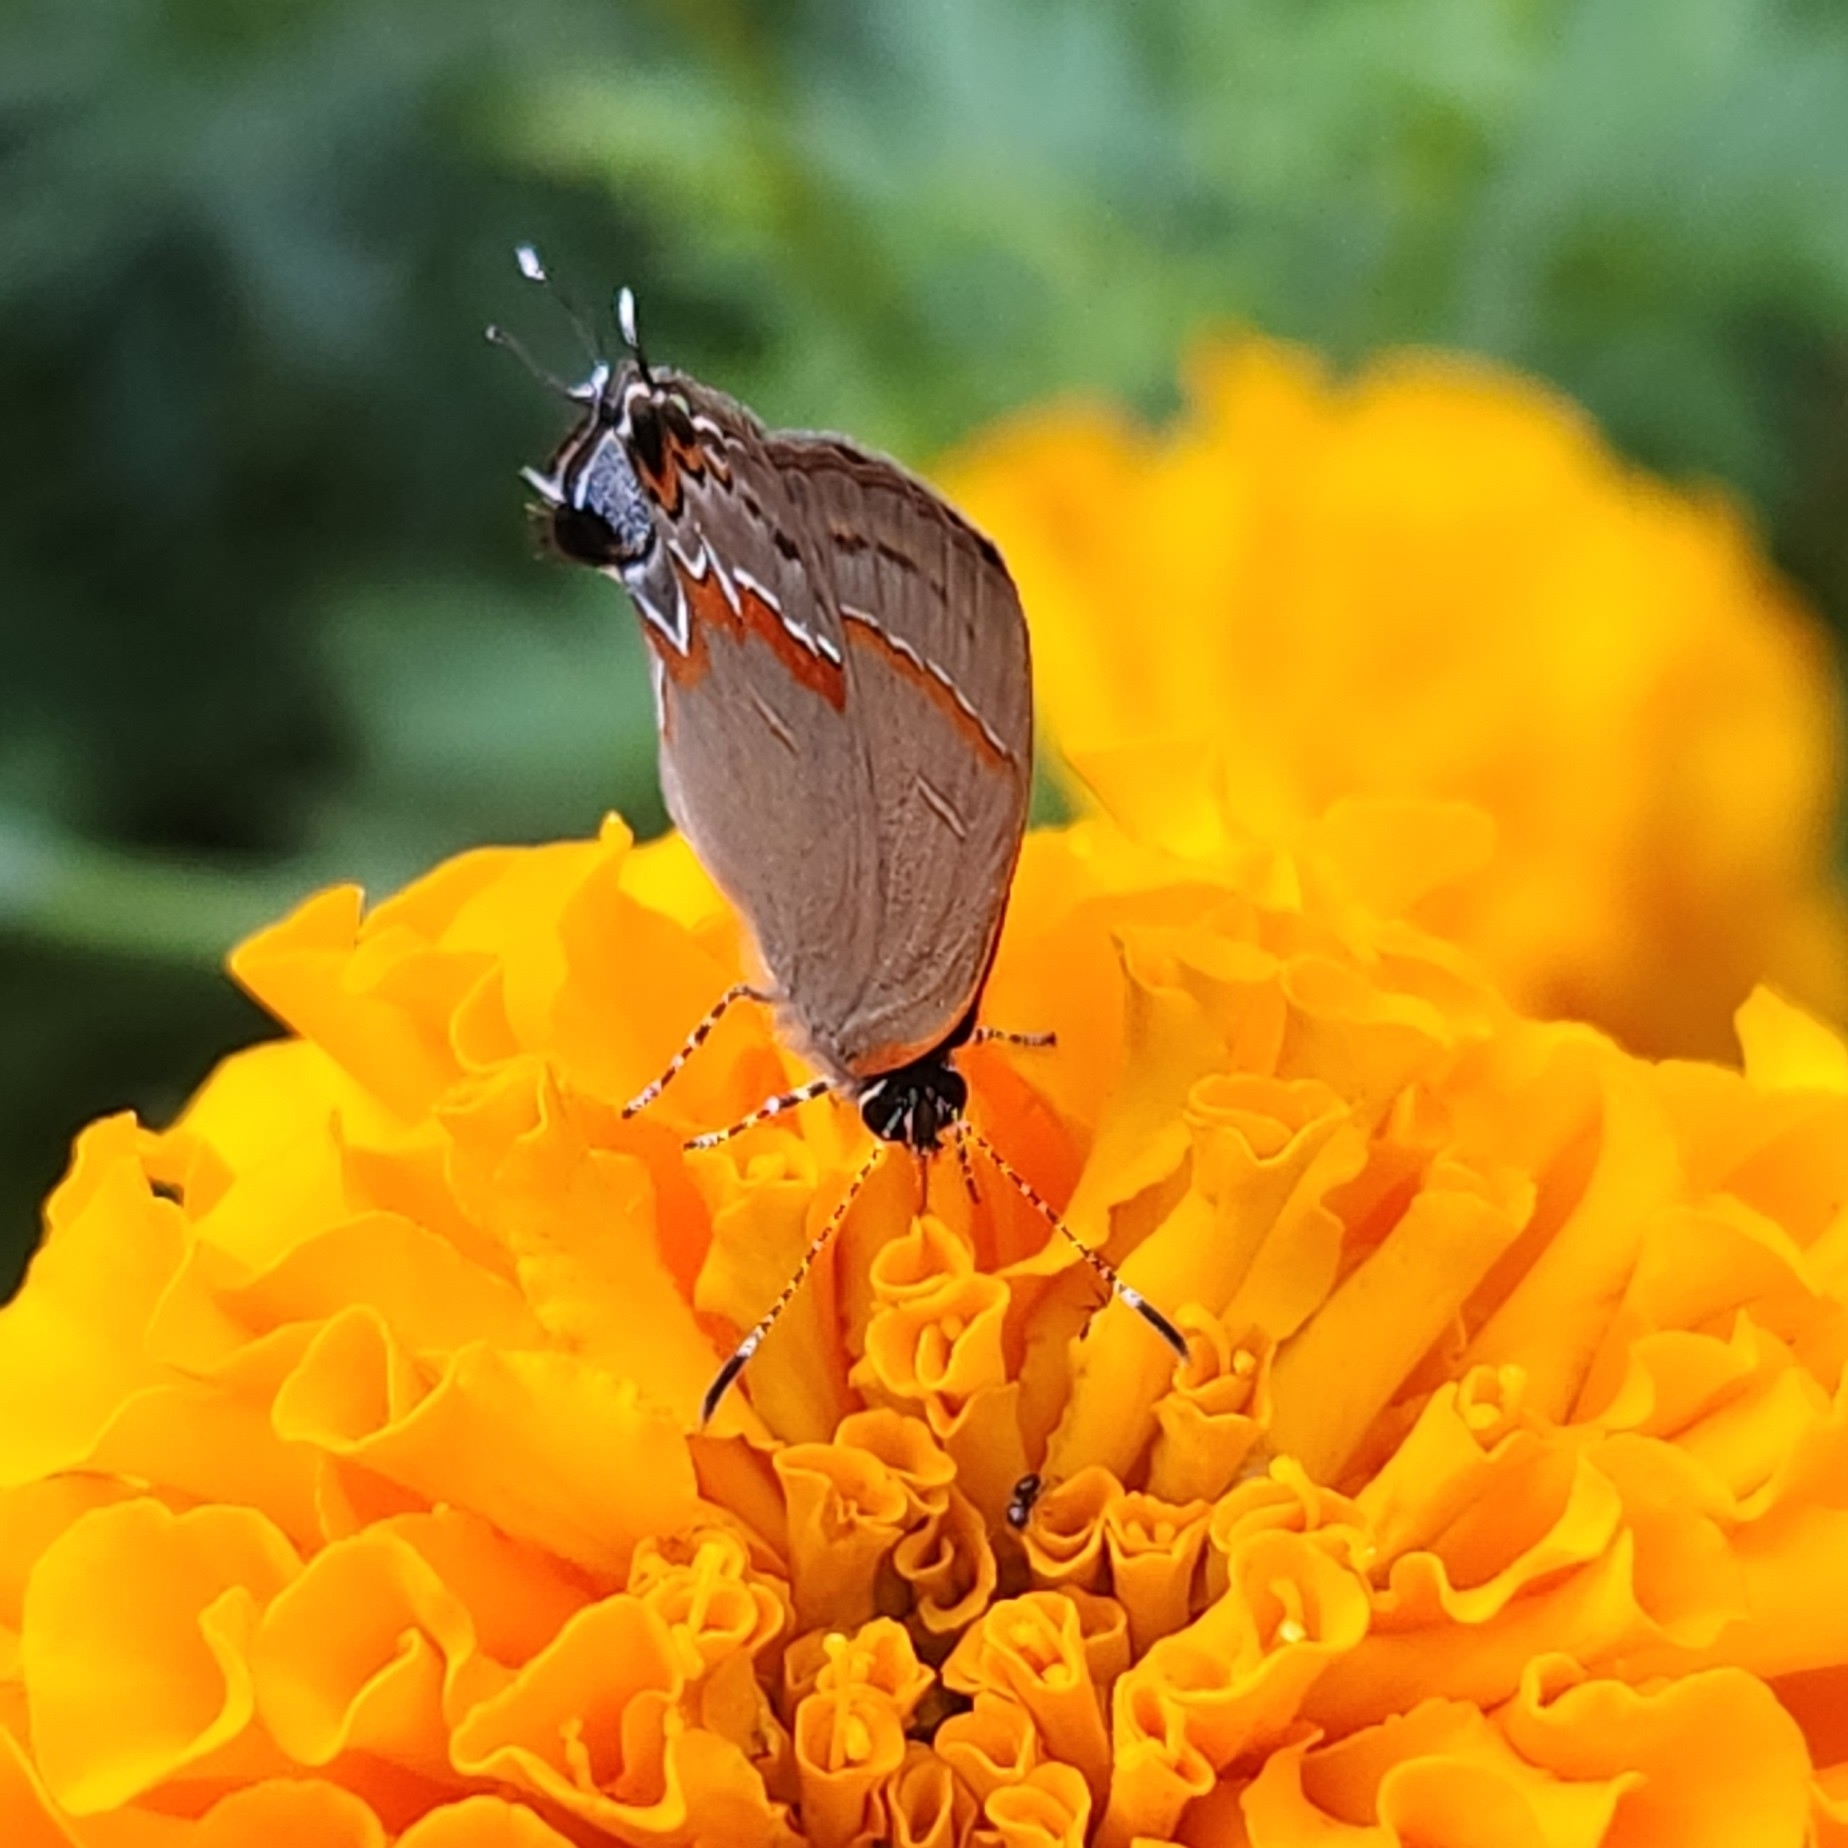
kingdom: Animalia
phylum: Arthropoda
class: Insecta
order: Lepidoptera
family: Lycaenidae
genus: Calycopis
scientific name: Calycopis cecrops
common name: Red-banded hairstreak
